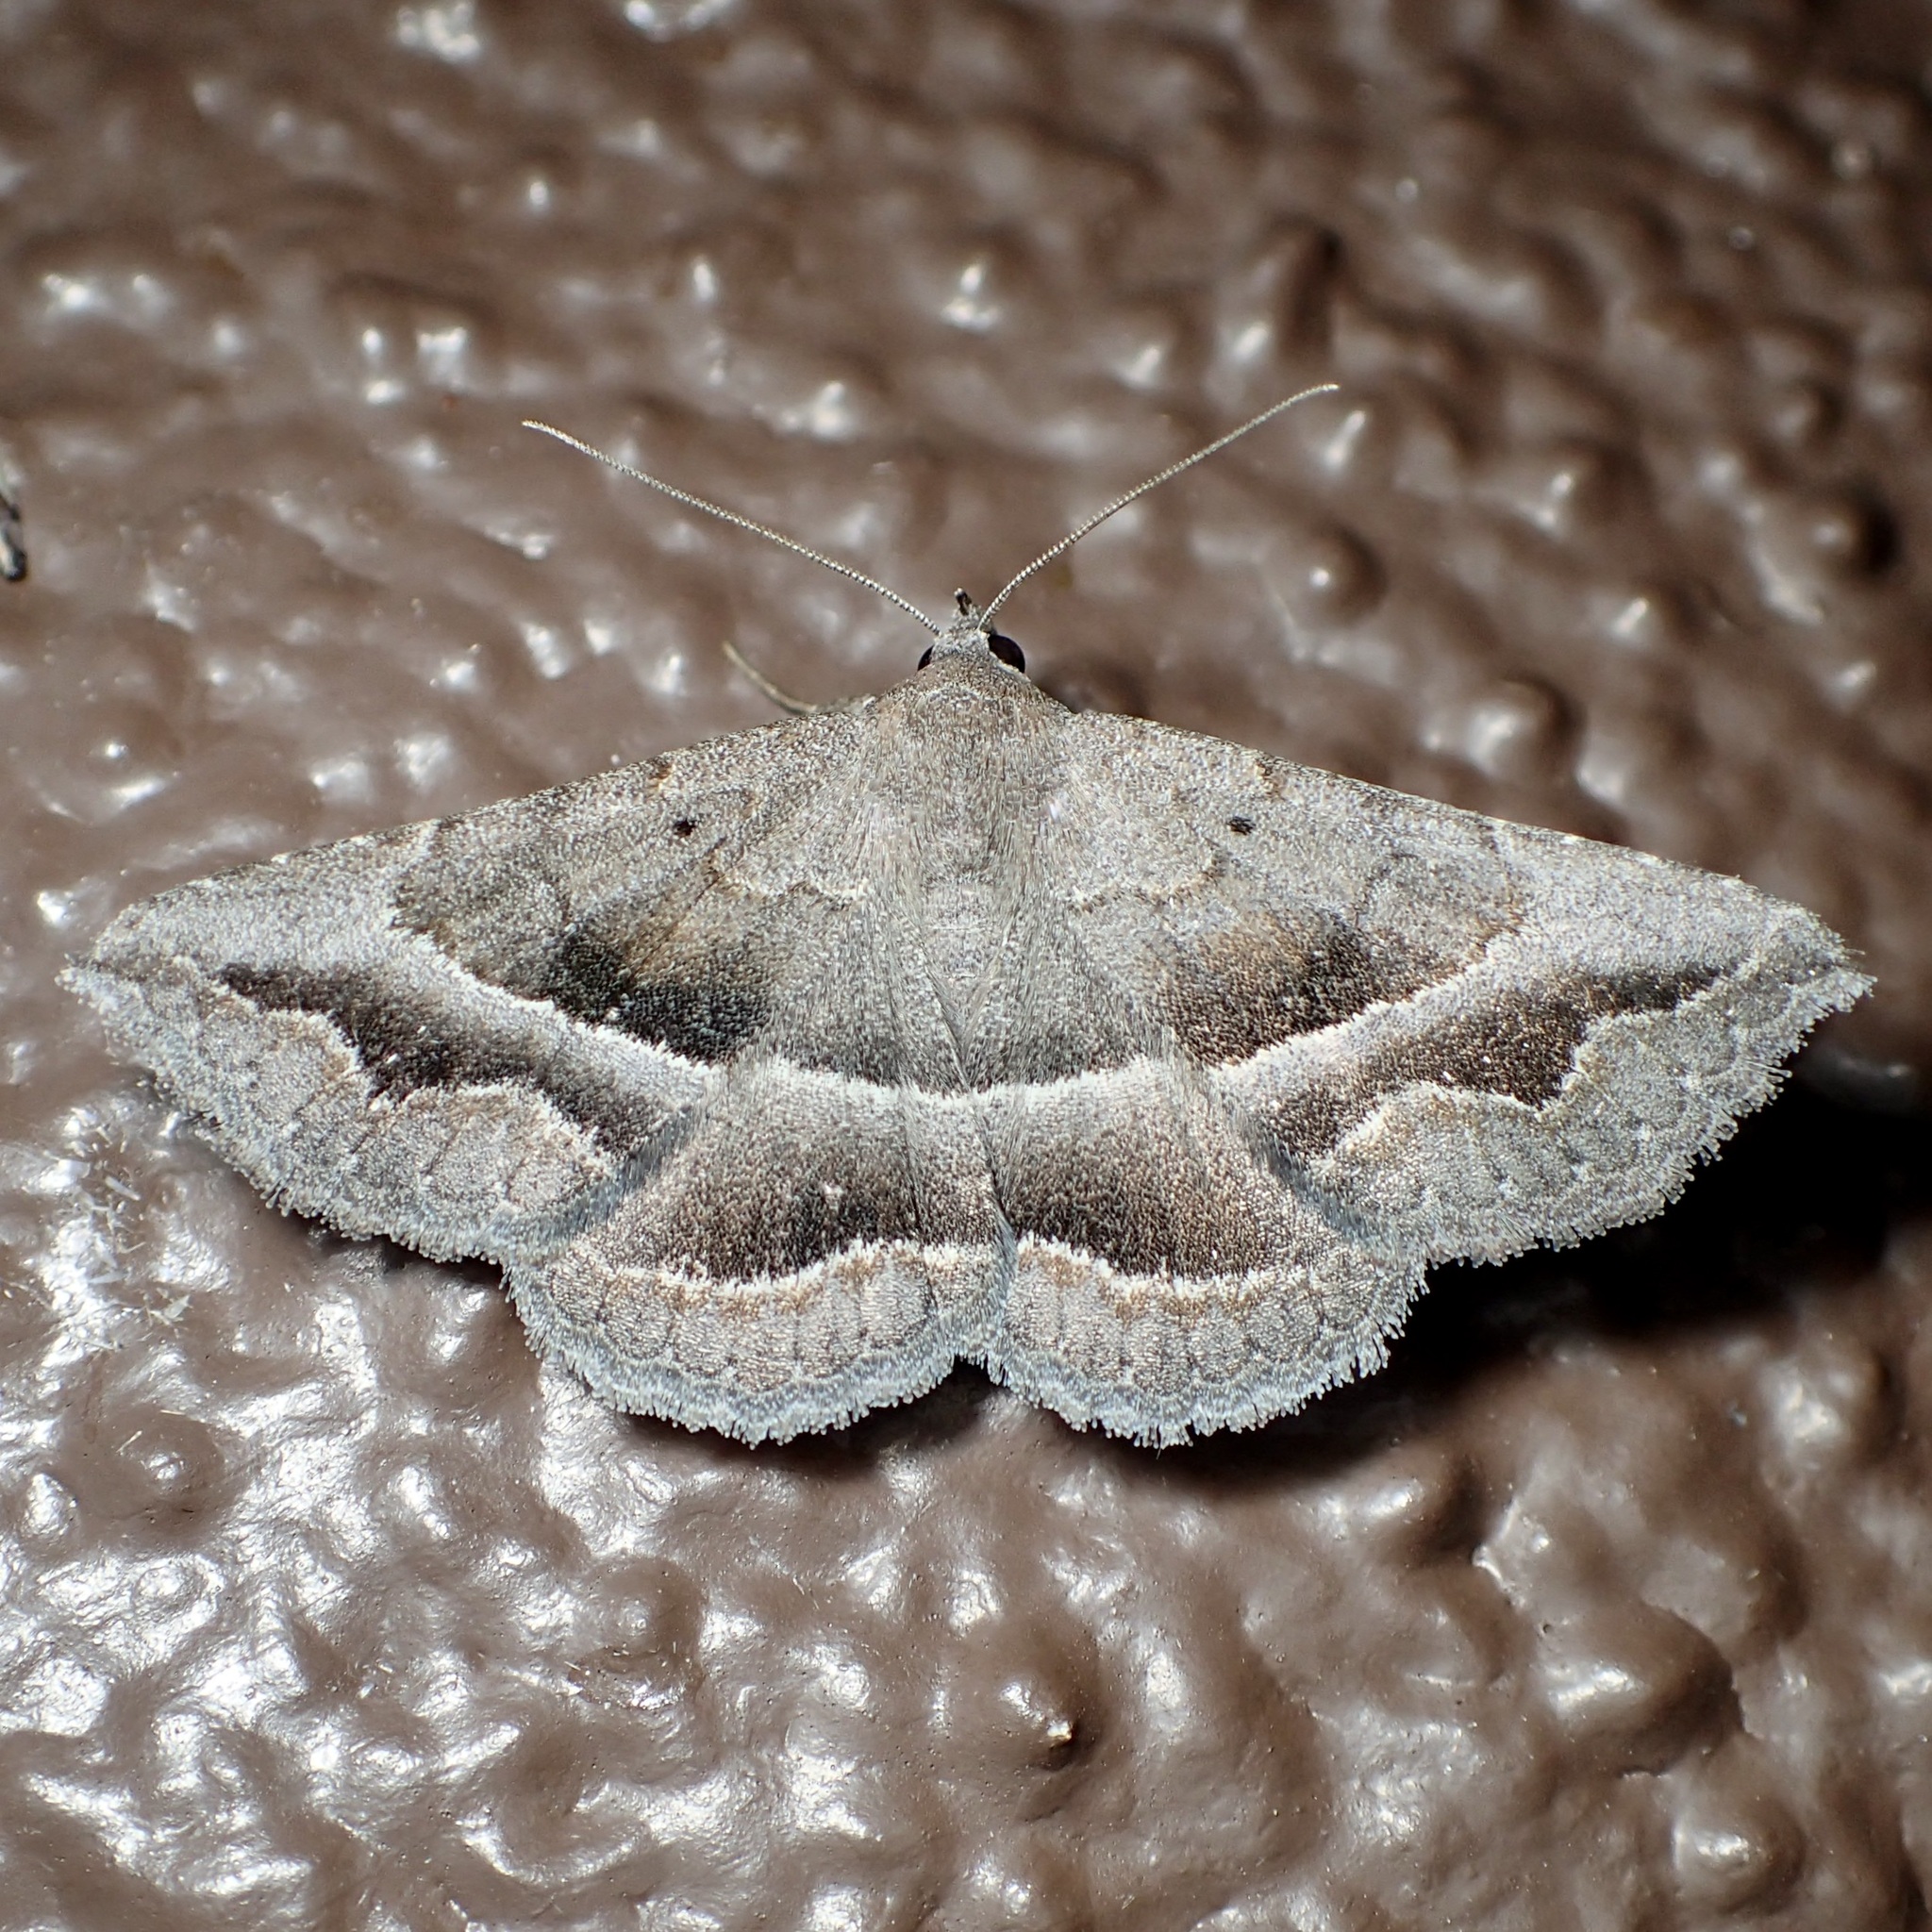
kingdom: Animalia
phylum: Arthropoda
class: Insecta
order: Lepidoptera
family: Erebidae
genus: Lesmone
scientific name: Lesmone griseipennis
